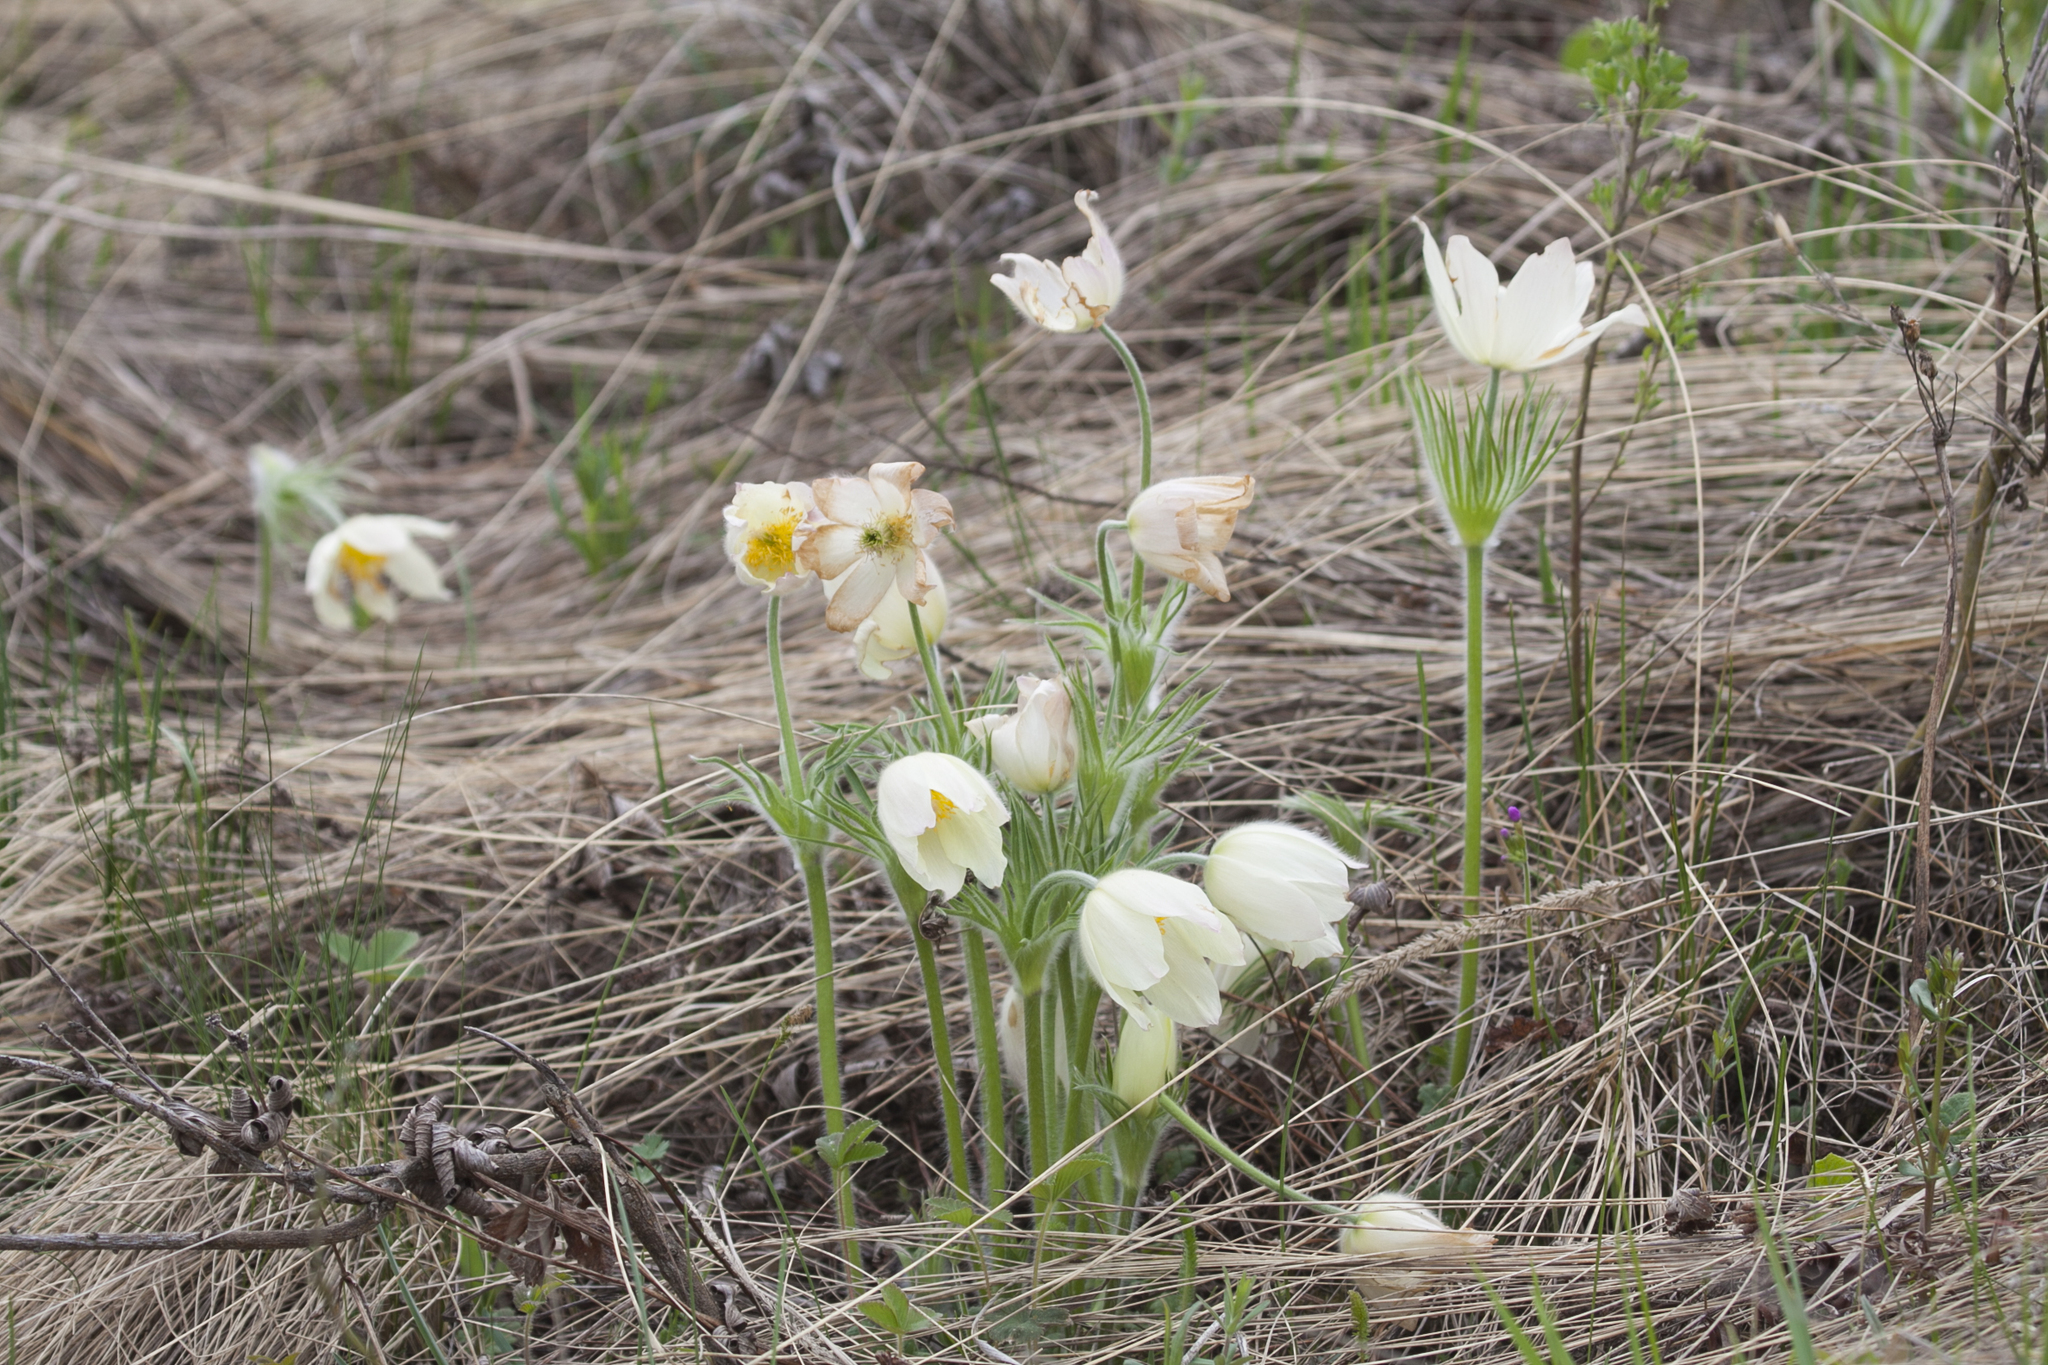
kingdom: Plantae
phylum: Tracheophyta
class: Magnoliopsida
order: Ranunculales
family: Ranunculaceae
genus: Pulsatilla
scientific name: Pulsatilla patens
